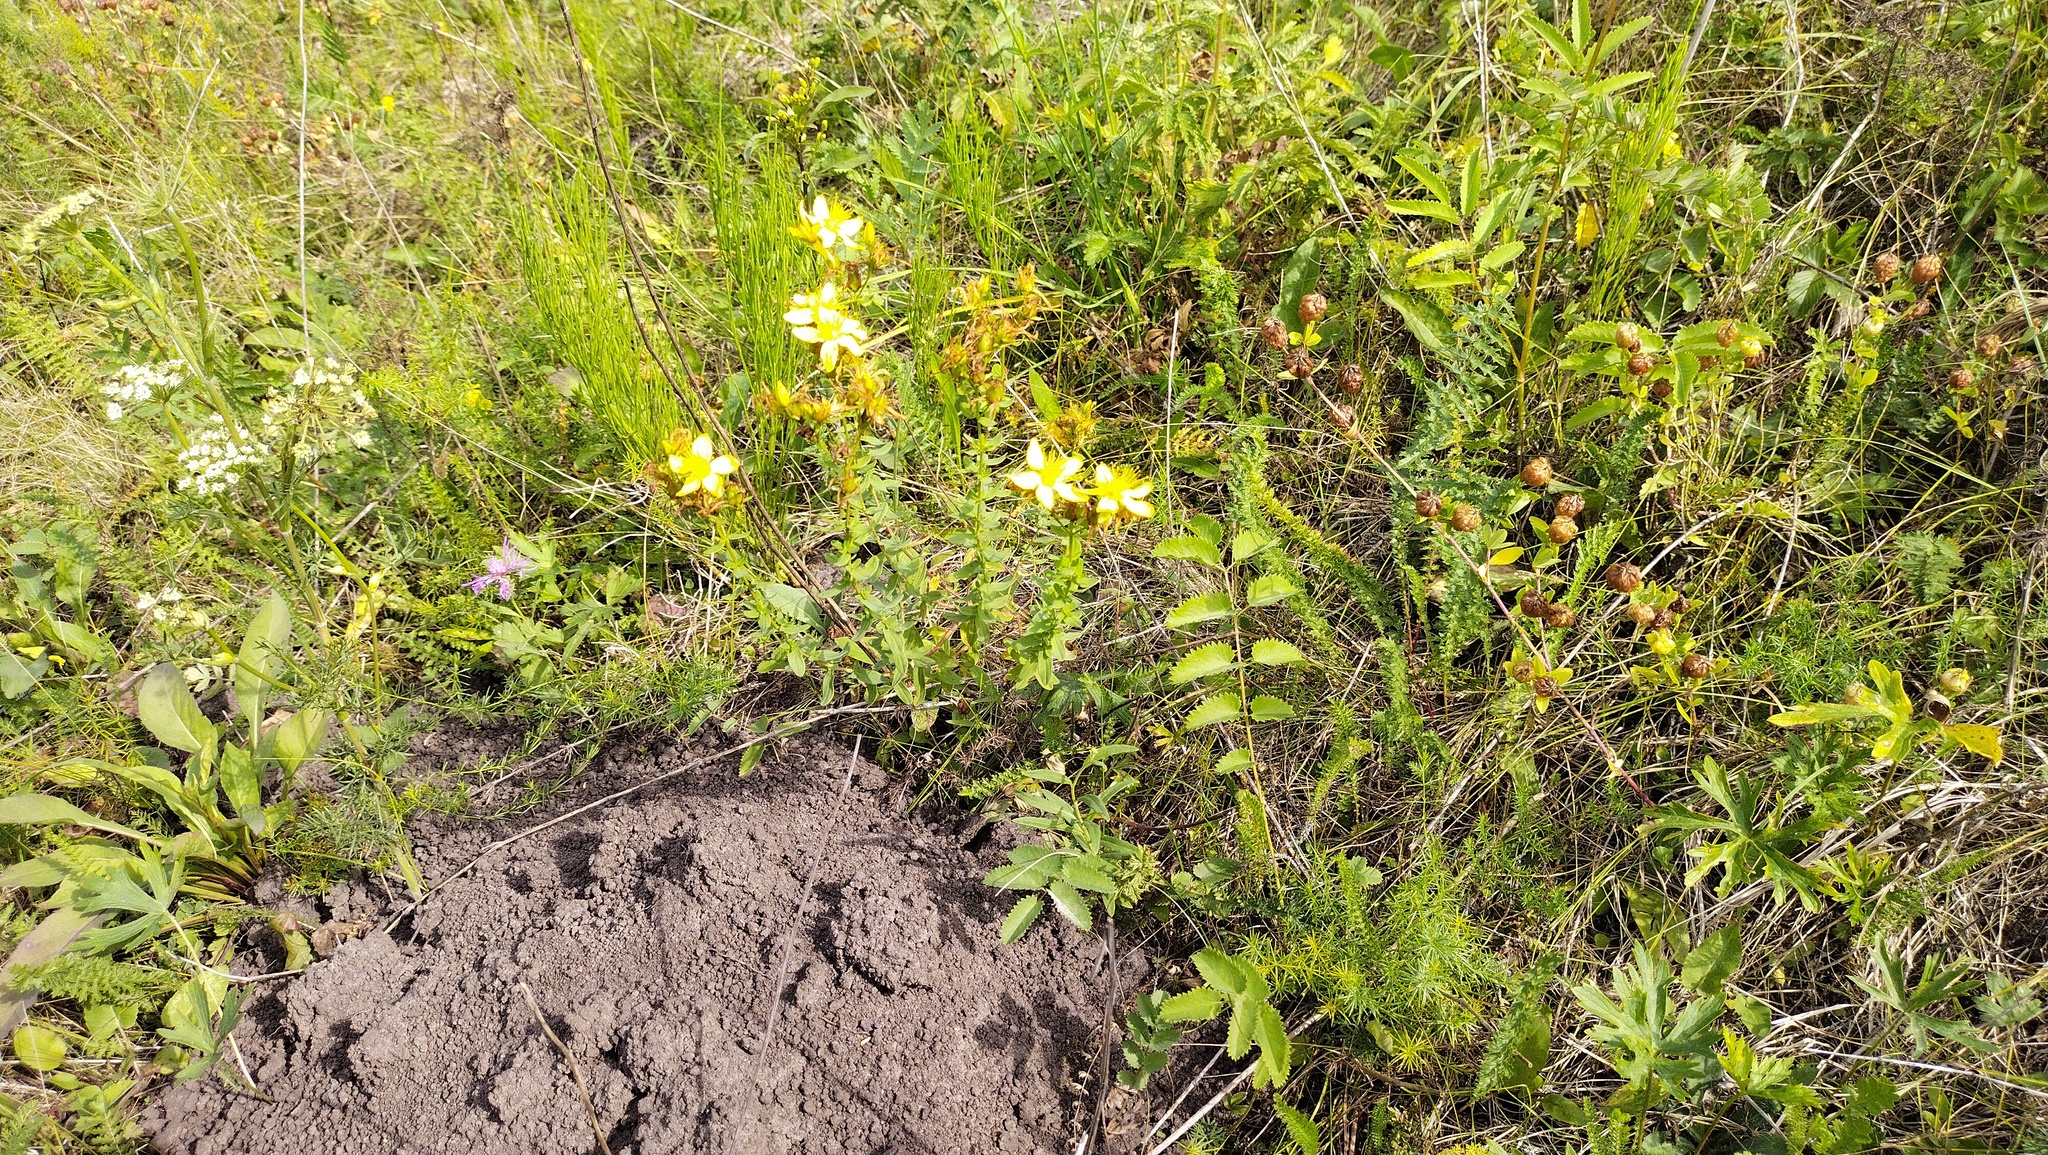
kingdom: Plantae
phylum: Tracheophyta
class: Magnoliopsida
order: Malpighiales
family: Hypericaceae
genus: Hypericum
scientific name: Hypericum perforatum
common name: Common st. johnswort
